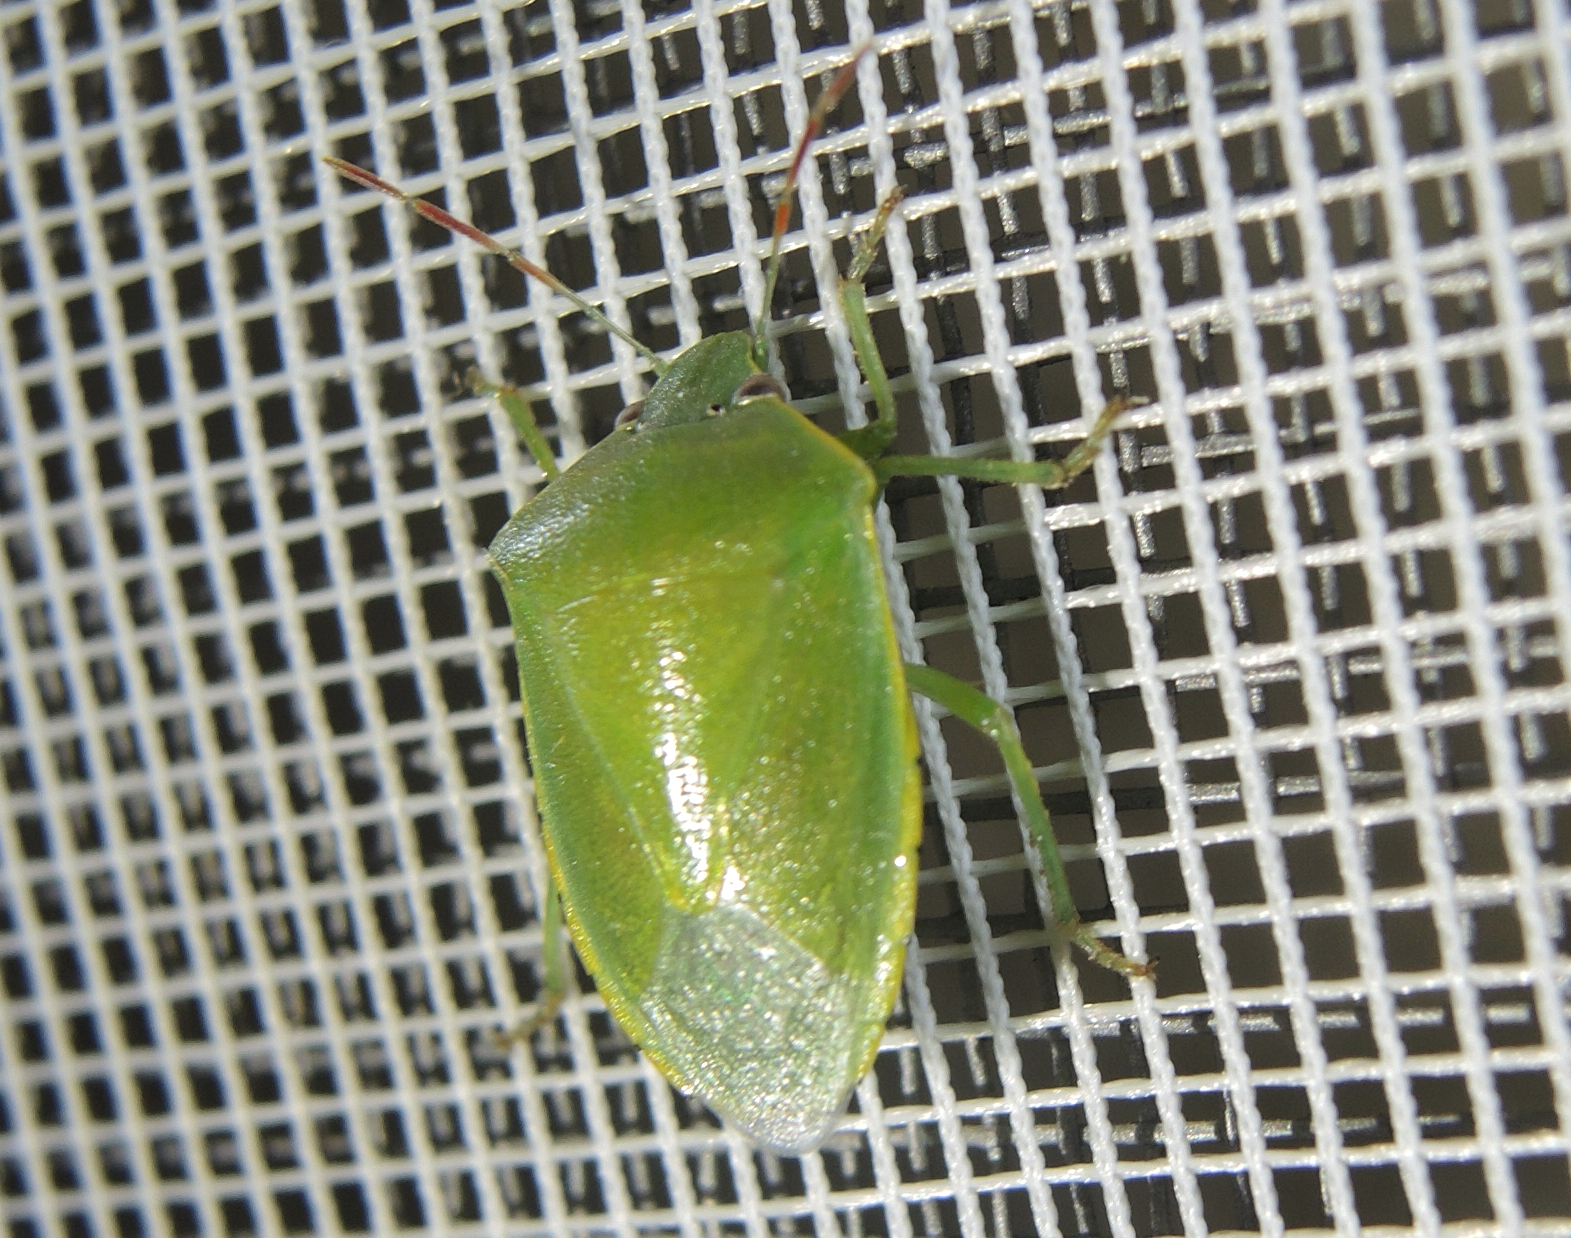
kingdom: Animalia
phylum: Arthropoda
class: Insecta
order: Hemiptera
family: Pentatomidae
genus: Acrosternum
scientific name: Acrosternum heegeri
